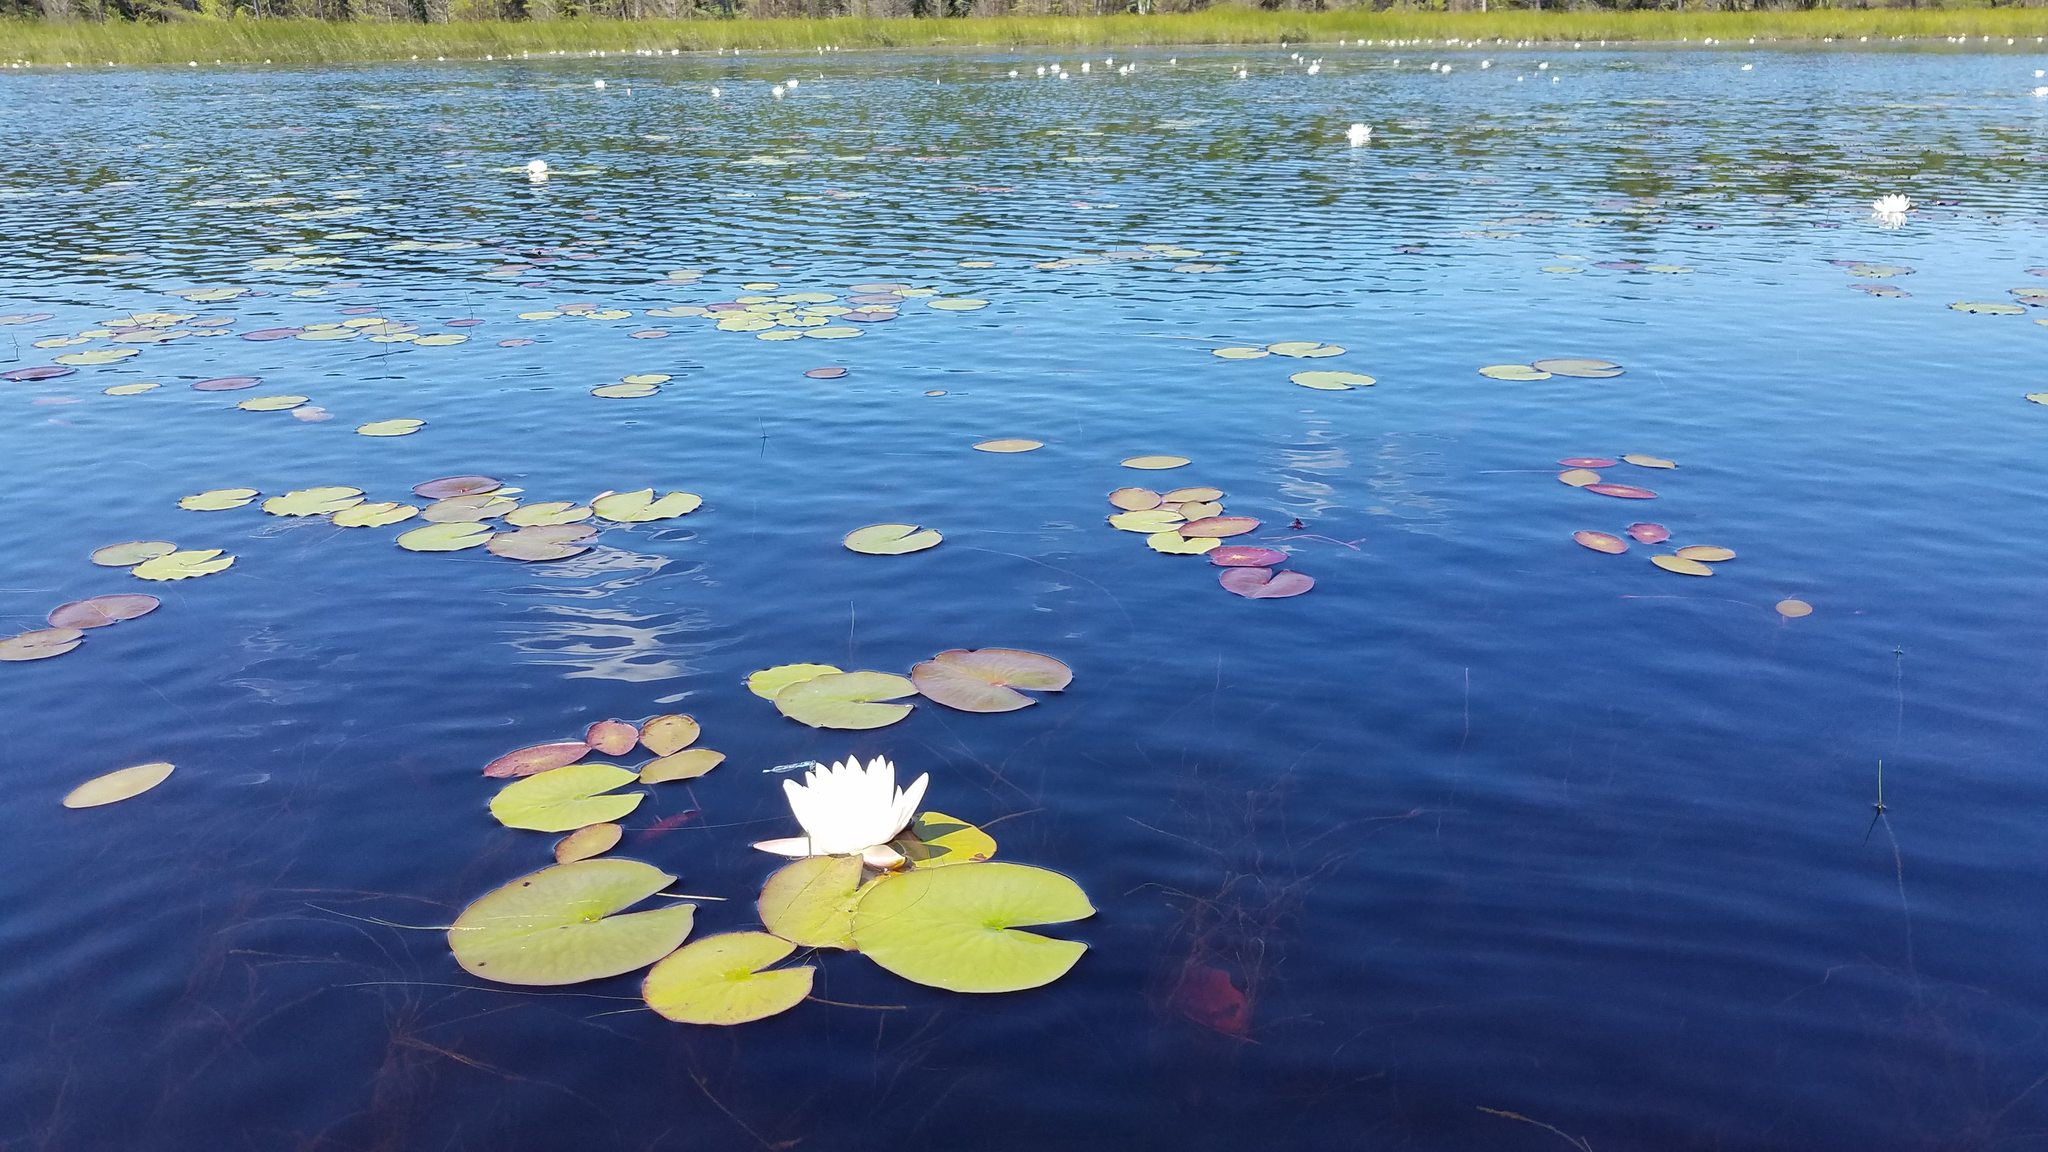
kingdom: Plantae
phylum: Tracheophyta
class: Magnoliopsida
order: Nymphaeales
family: Nymphaeaceae
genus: Nymphaea
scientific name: Nymphaea odorata
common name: Fragrant water-lily
